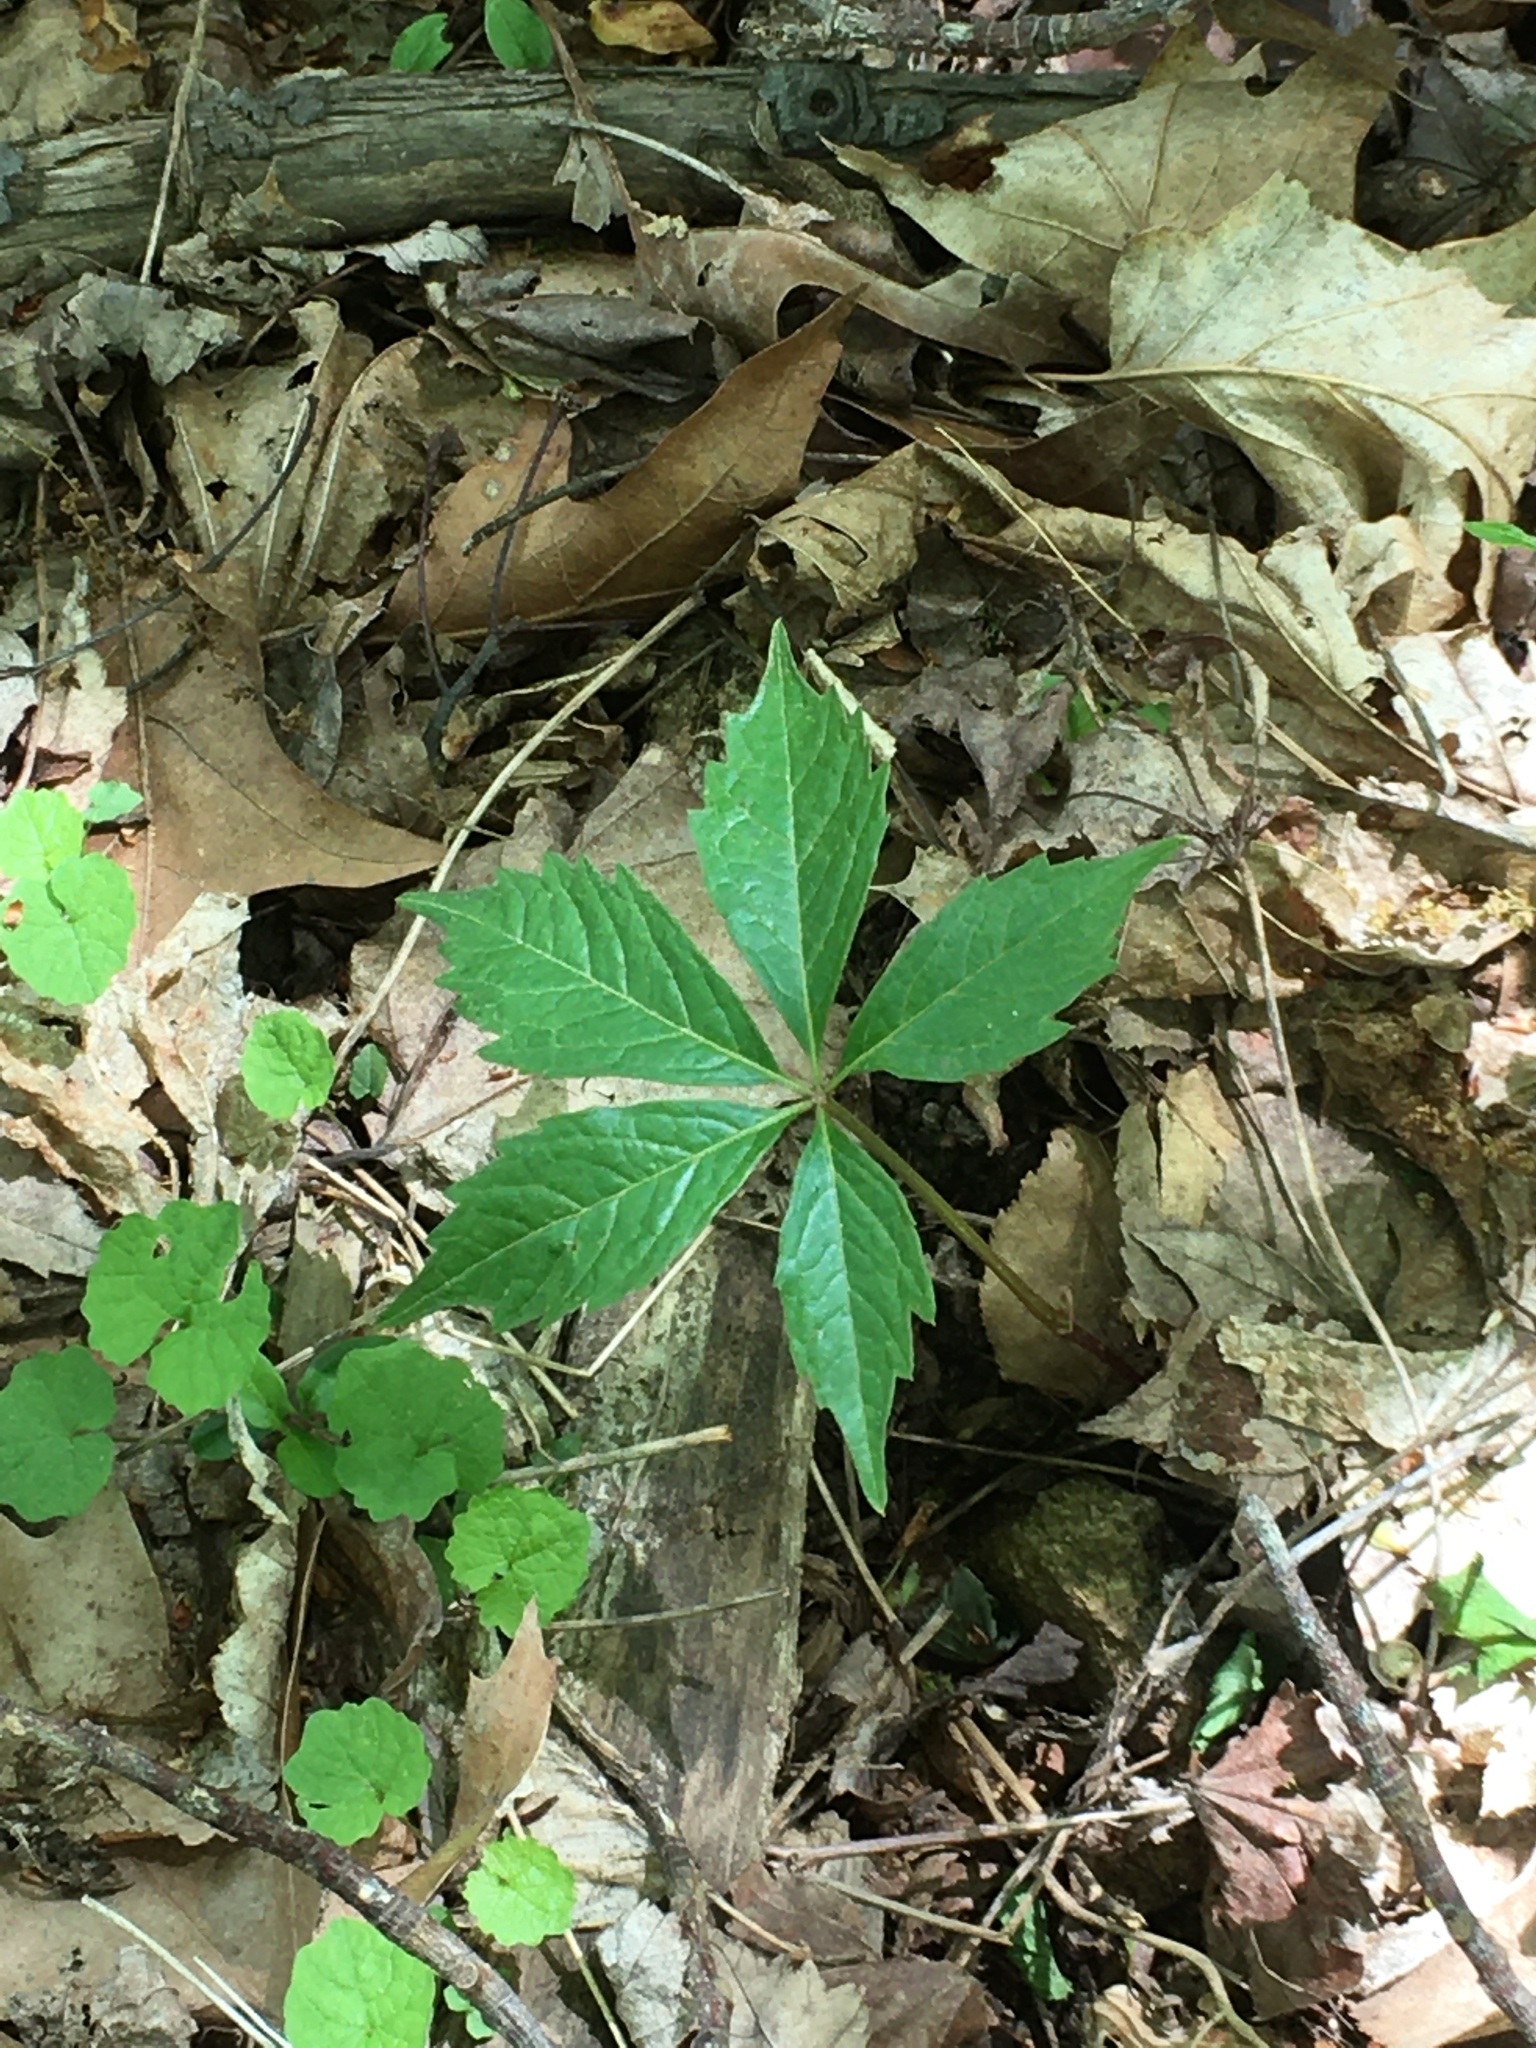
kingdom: Plantae
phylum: Tracheophyta
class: Magnoliopsida
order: Vitales
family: Vitaceae
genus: Parthenocissus
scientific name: Parthenocissus quinquefolia
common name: Virginia-creeper
